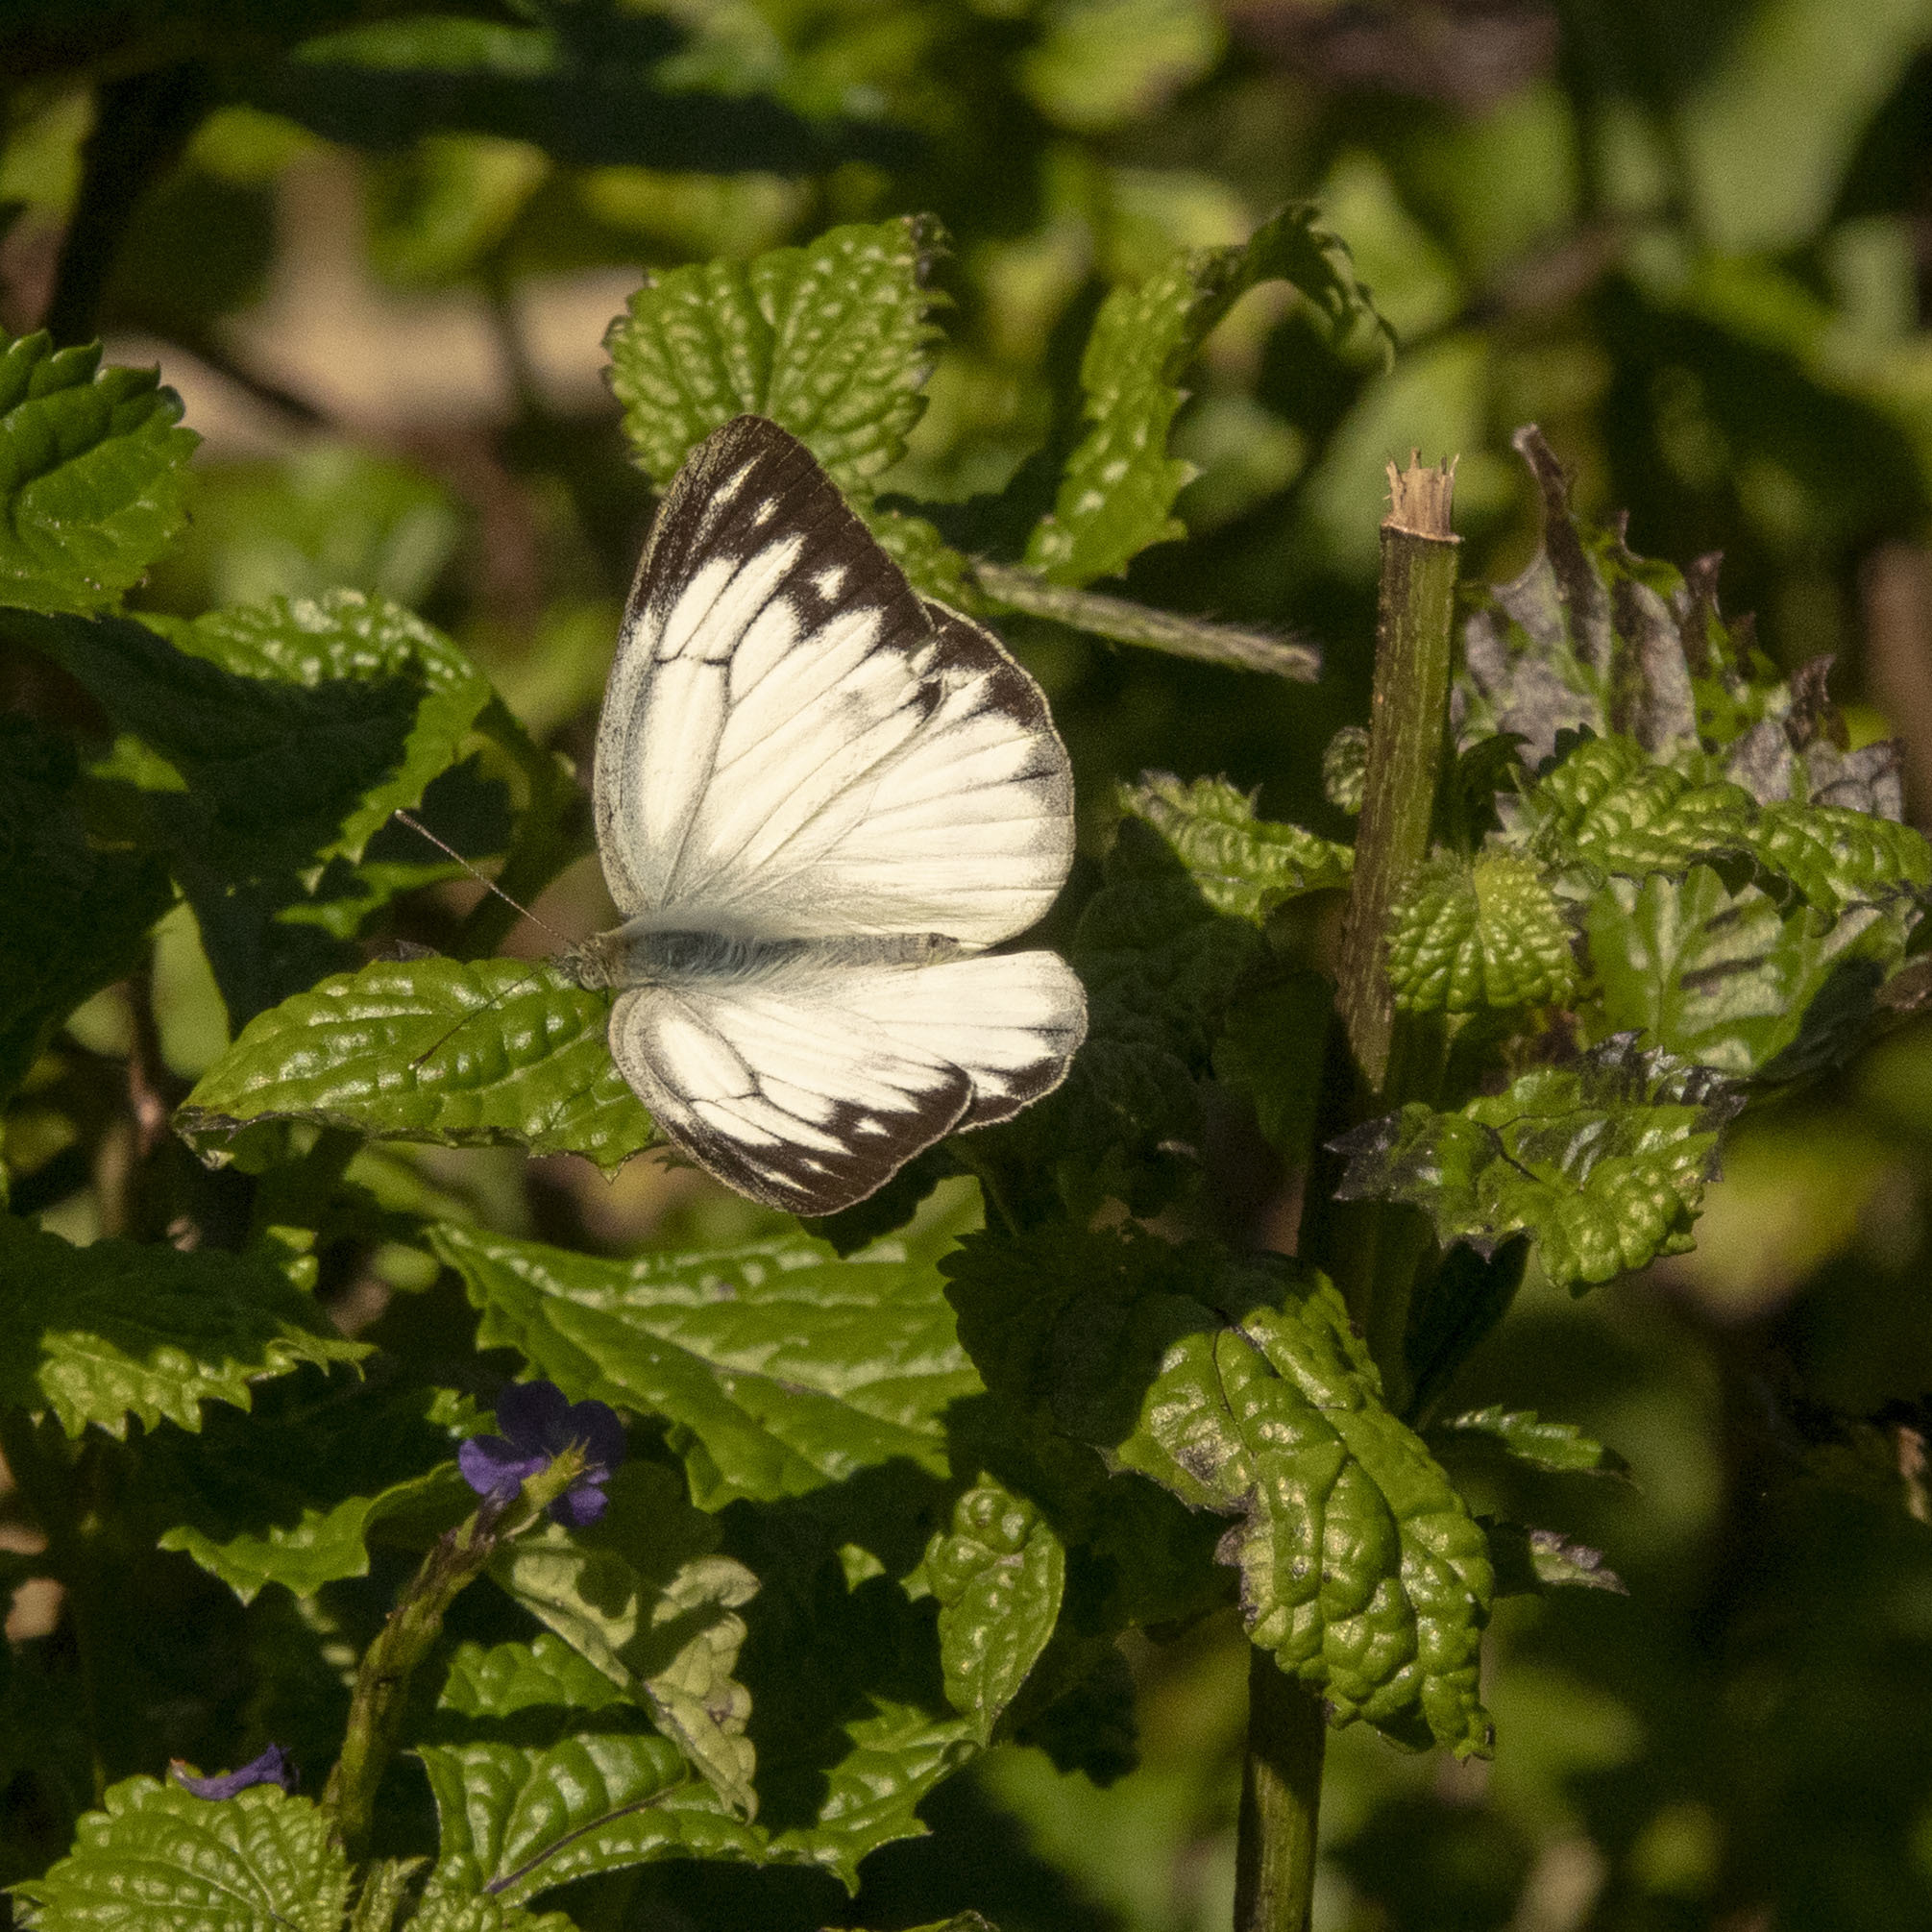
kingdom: Animalia
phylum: Arthropoda
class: Insecta
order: Lepidoptera
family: Pieridae
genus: Cepora
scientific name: Cepora nerissa
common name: Common gull
